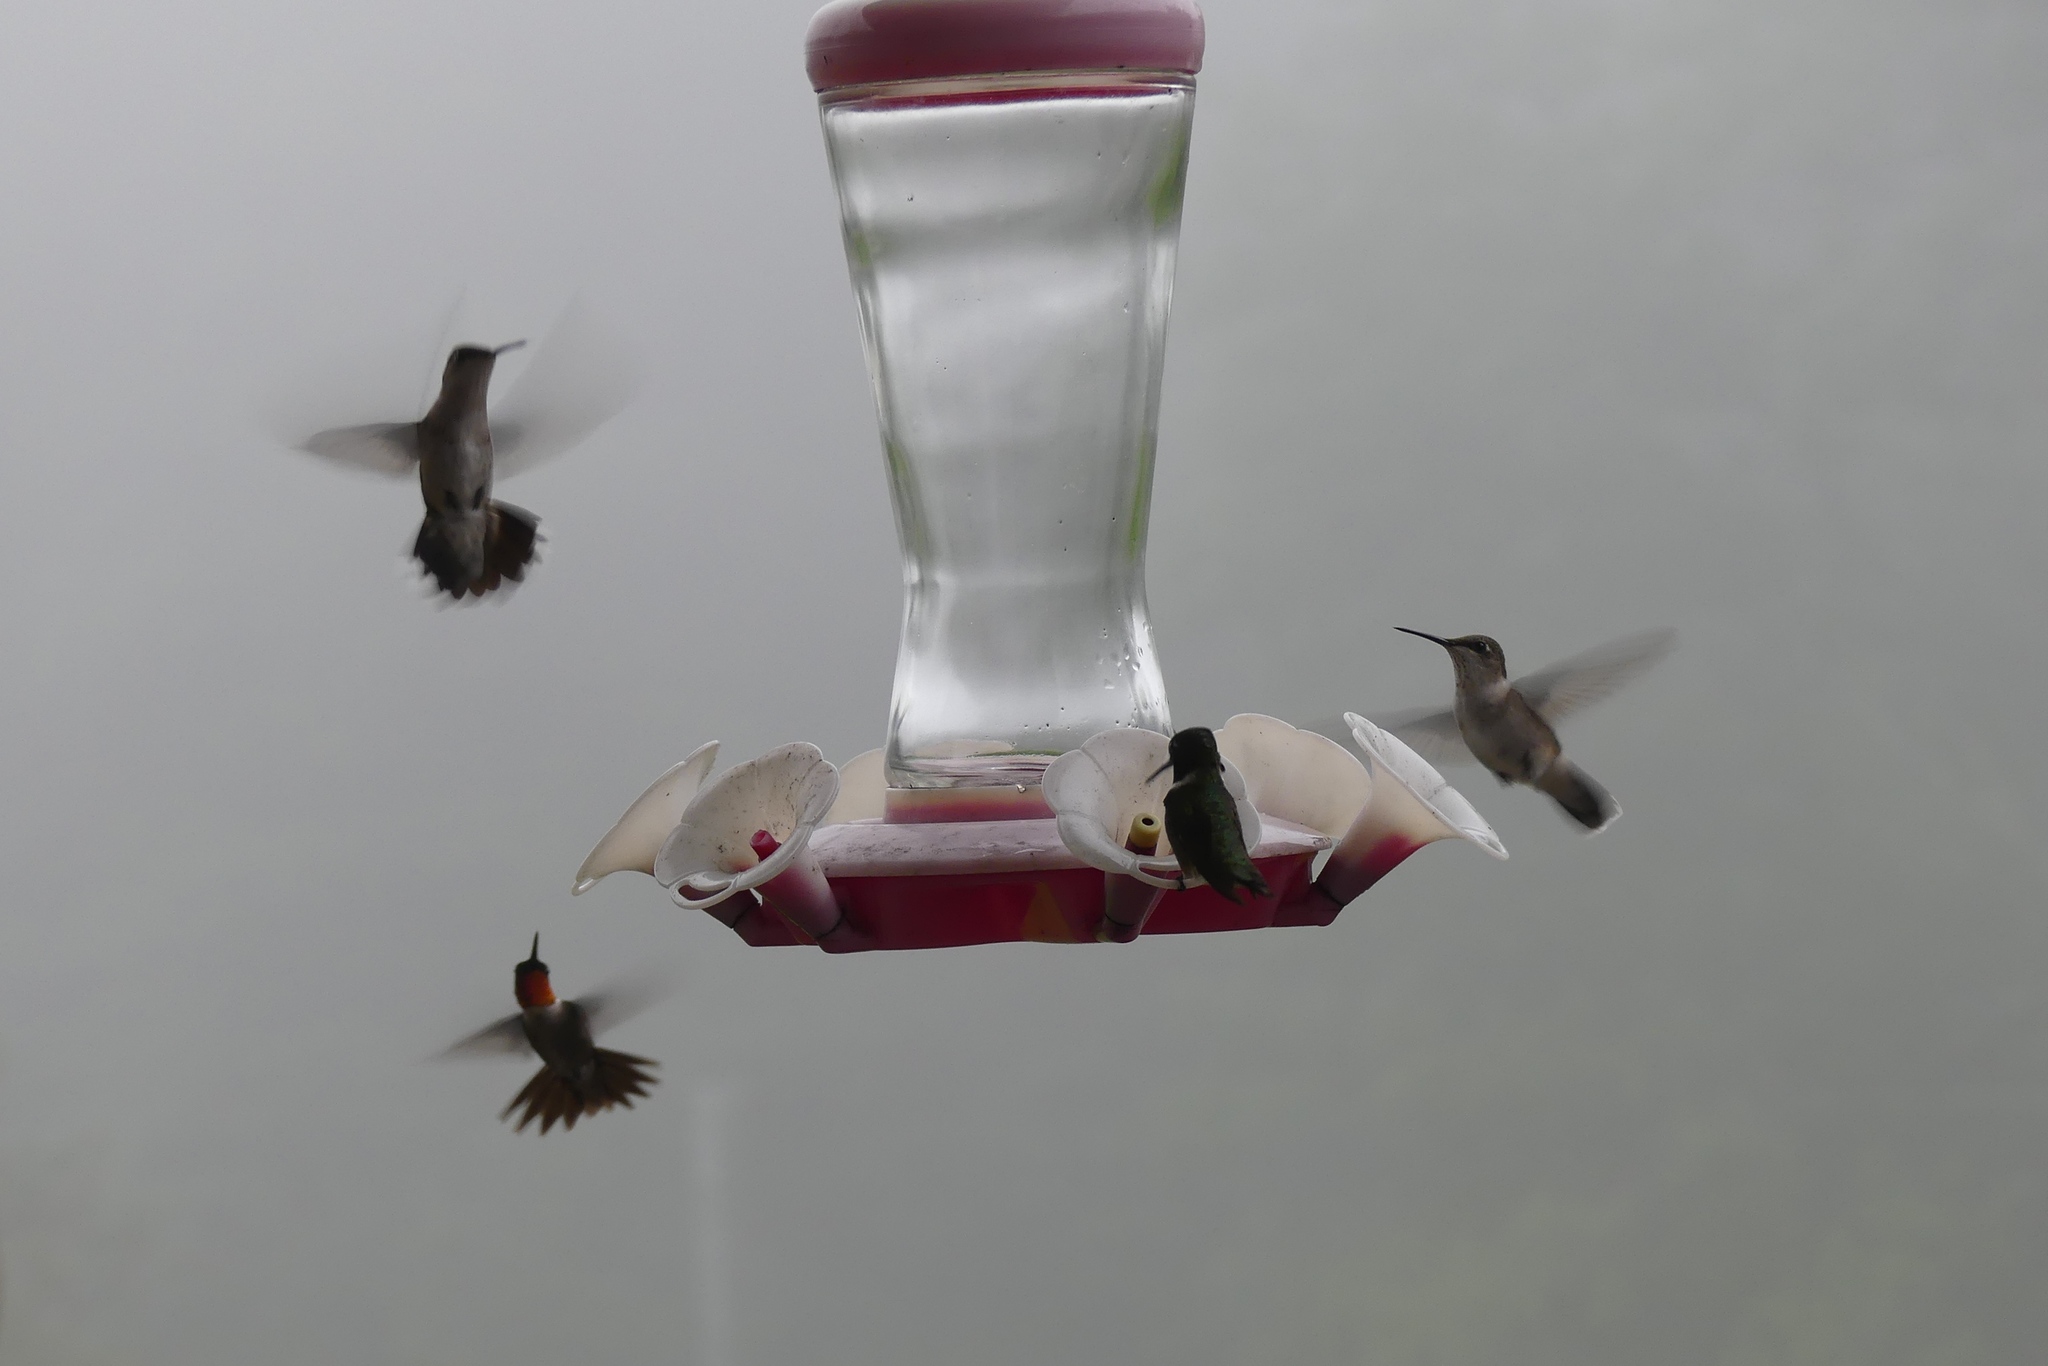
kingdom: Animalia
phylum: Chordata
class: Aves
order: Apodiformes
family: Trochilidae
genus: Archilochus
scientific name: Archilochus colubris
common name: Ruby-throated hummingbird
